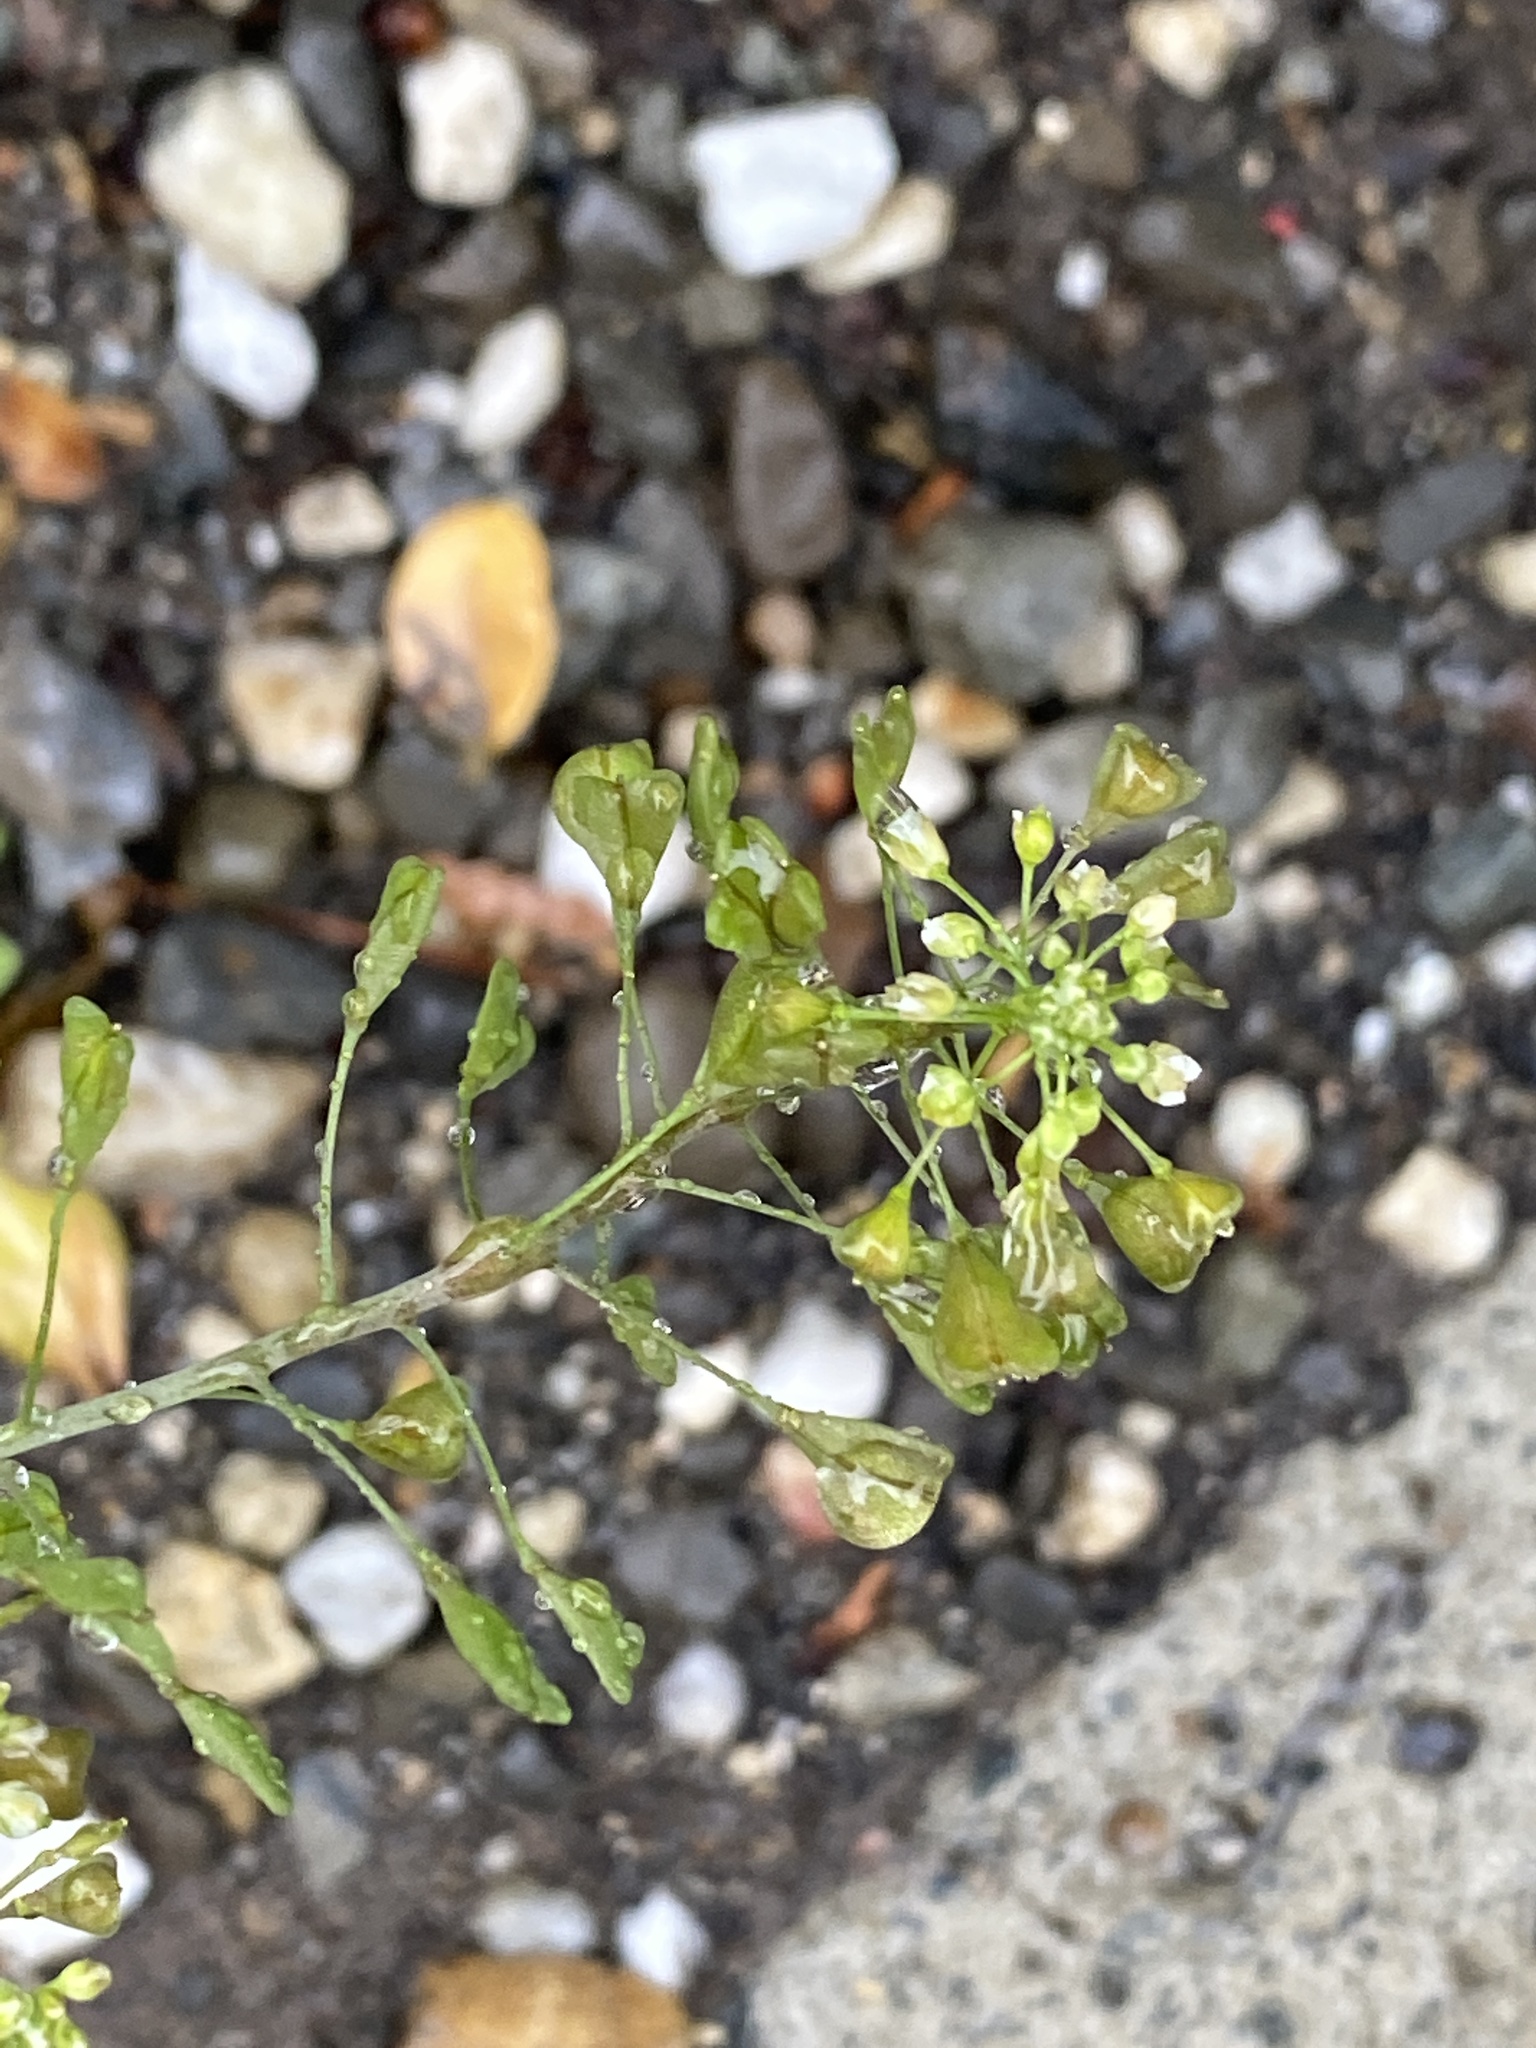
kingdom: Plantae
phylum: Tracheophyta
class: Magnoliopsida
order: Brassicales
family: Brassicaceae
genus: Capsella
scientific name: Capsella bursa-pastoris
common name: Shepherd's purse
